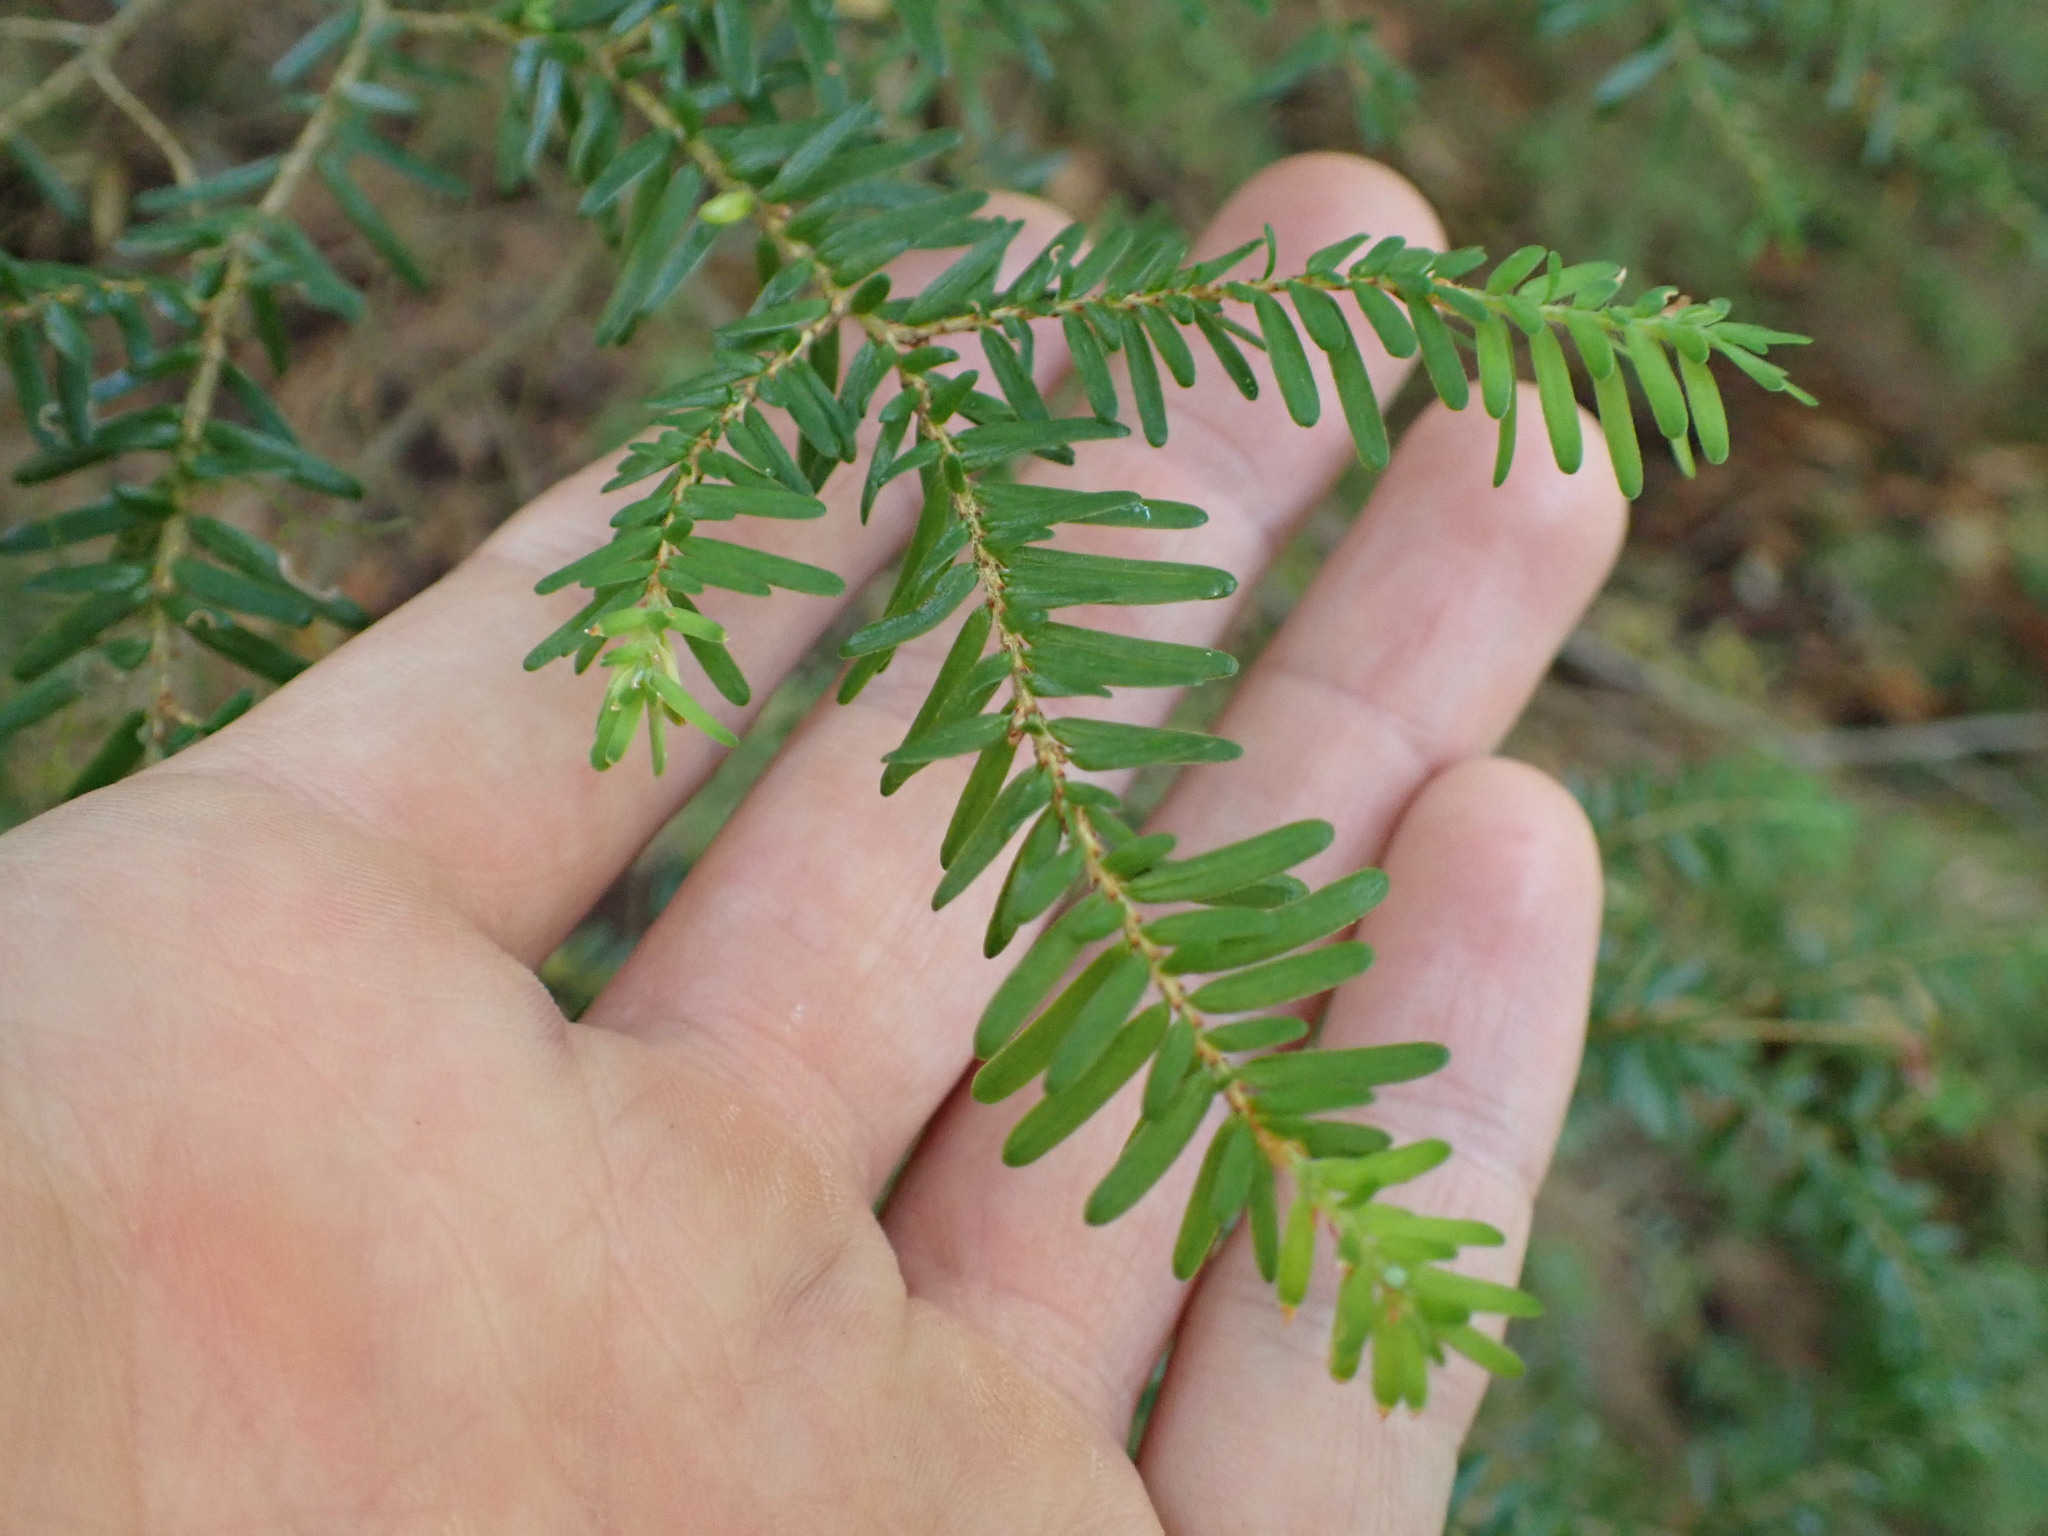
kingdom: Plantae
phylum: Tracheophyta
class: Pinopsida
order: Pinales
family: Pinaceae
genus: Tsuga
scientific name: Tsuga heterophylla
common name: Western hemlock
